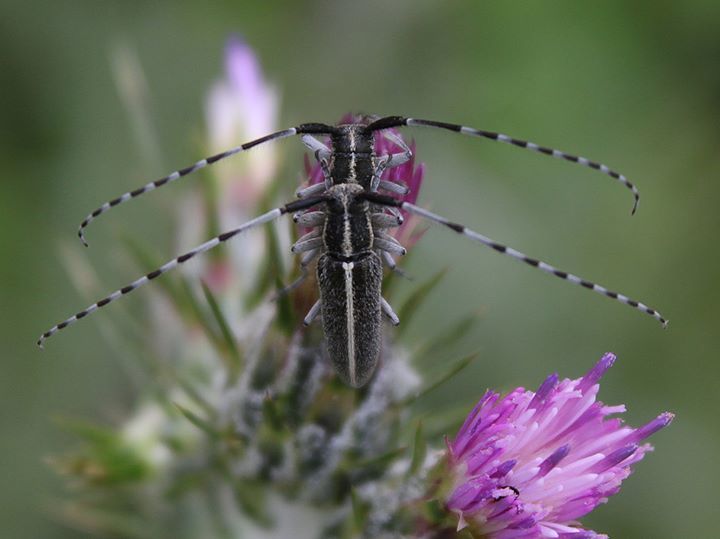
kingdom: Animalia
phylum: Arthropoda
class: Insecta
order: Coleoptera
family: Cerambycidae
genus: Agapanthia
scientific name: Agapanthia cardui
